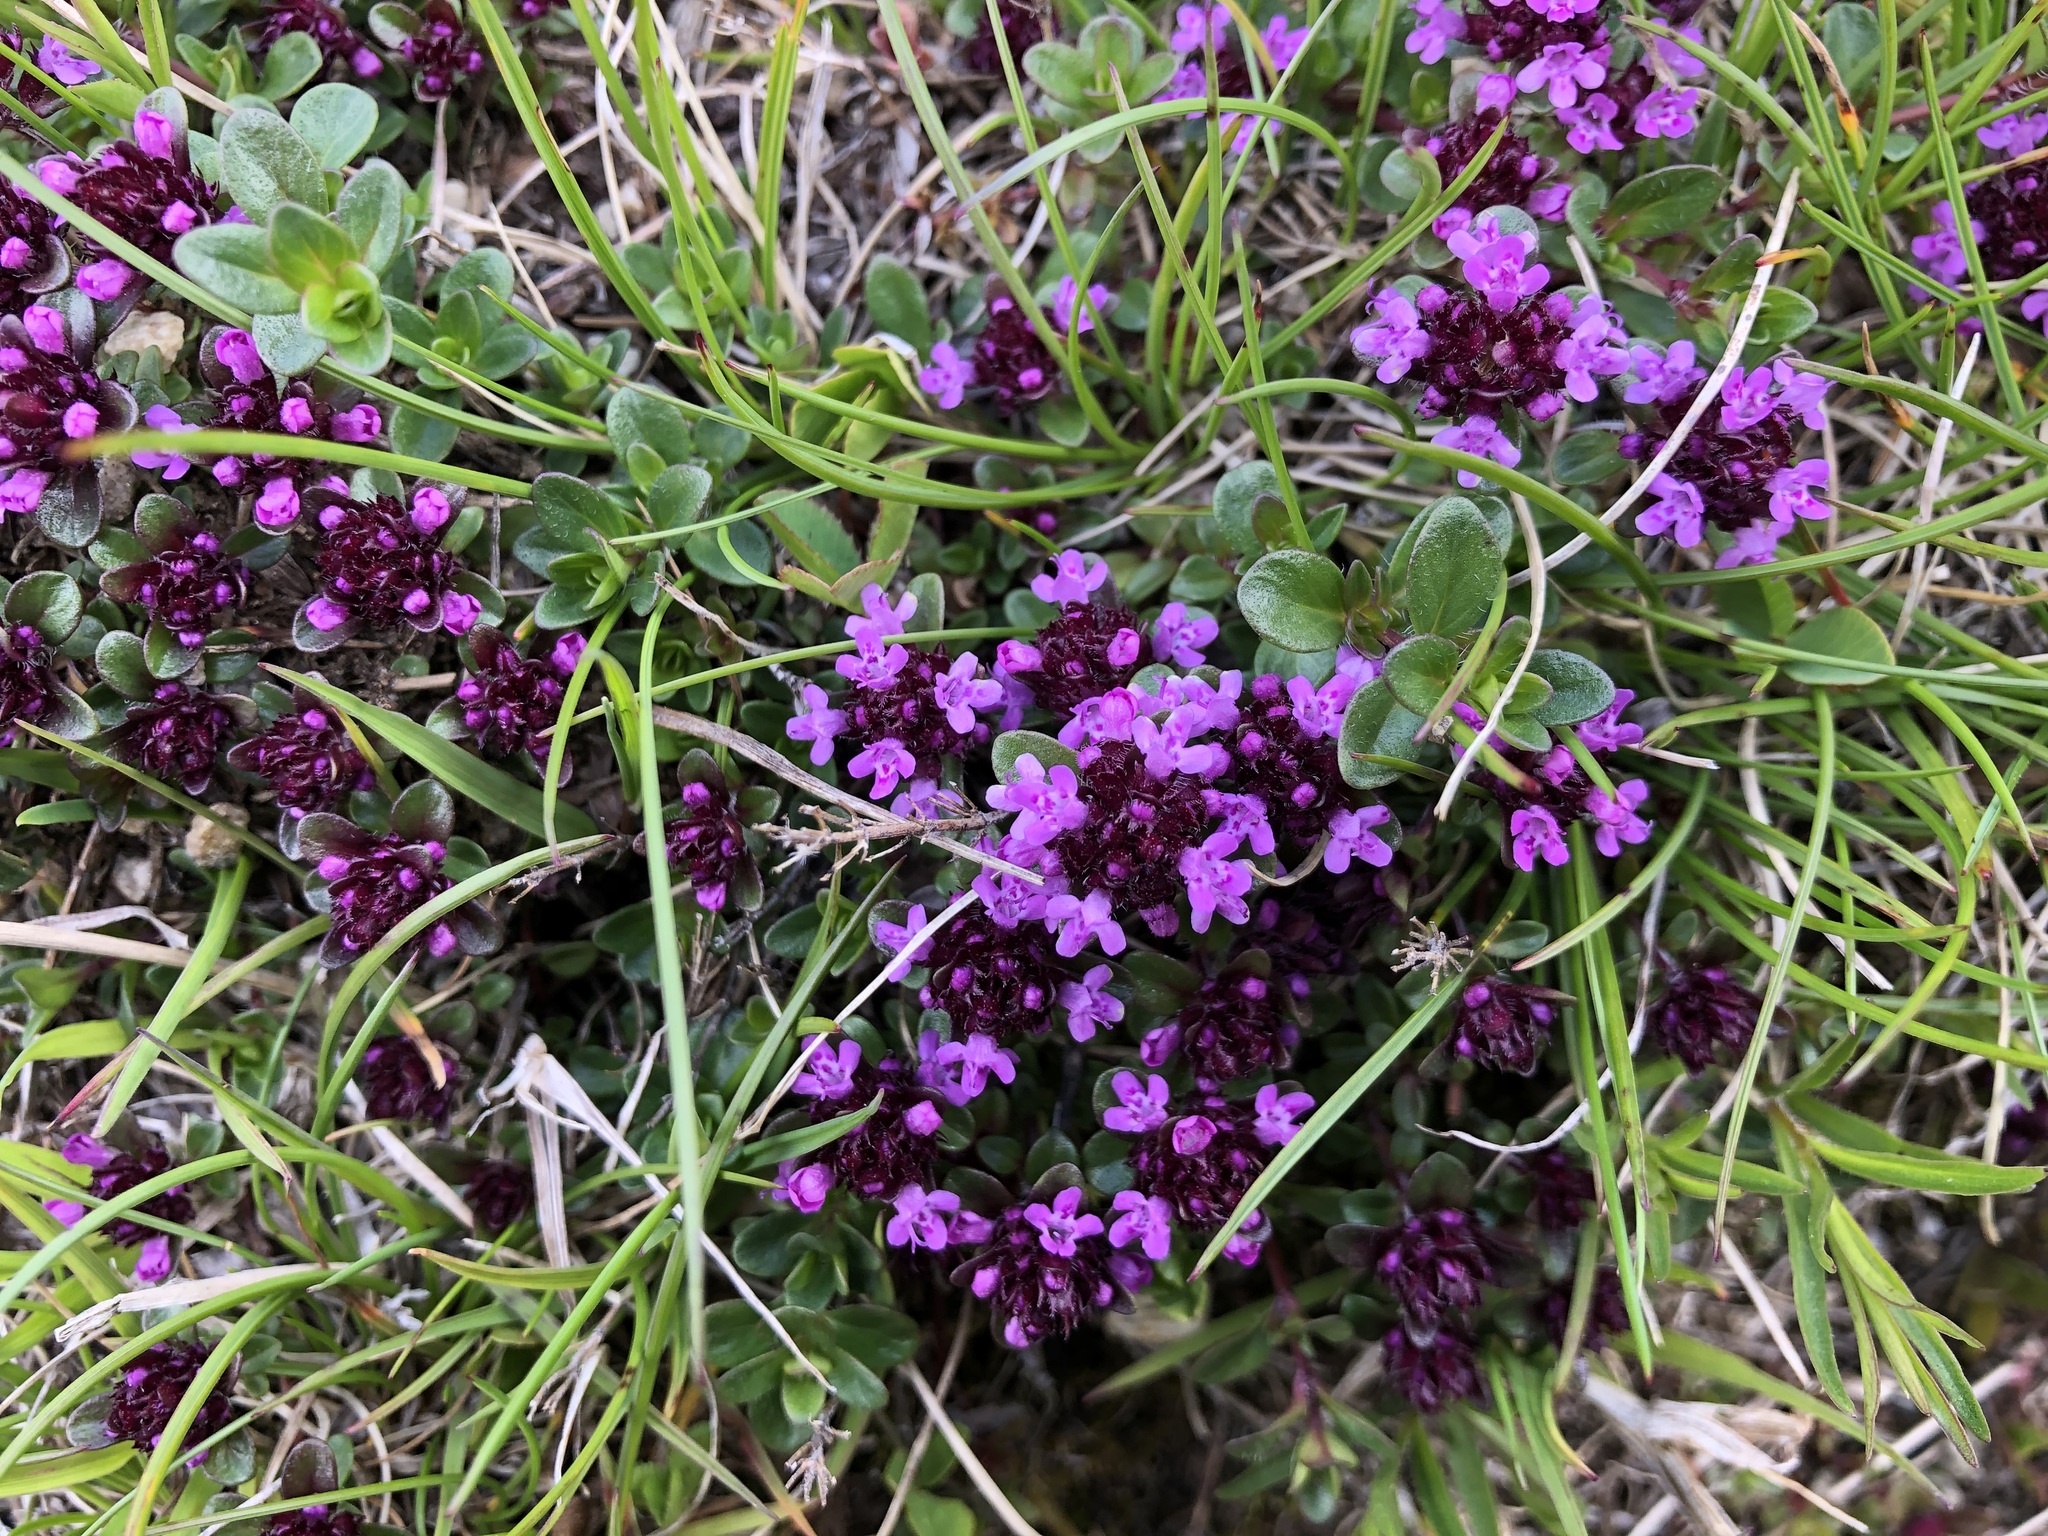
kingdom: Plantae
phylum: Tracheophyta
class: Magnoliopsida
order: Lamiales
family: Lamiaceae
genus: Thymus
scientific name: Thymus praecox
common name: Wild thyme
